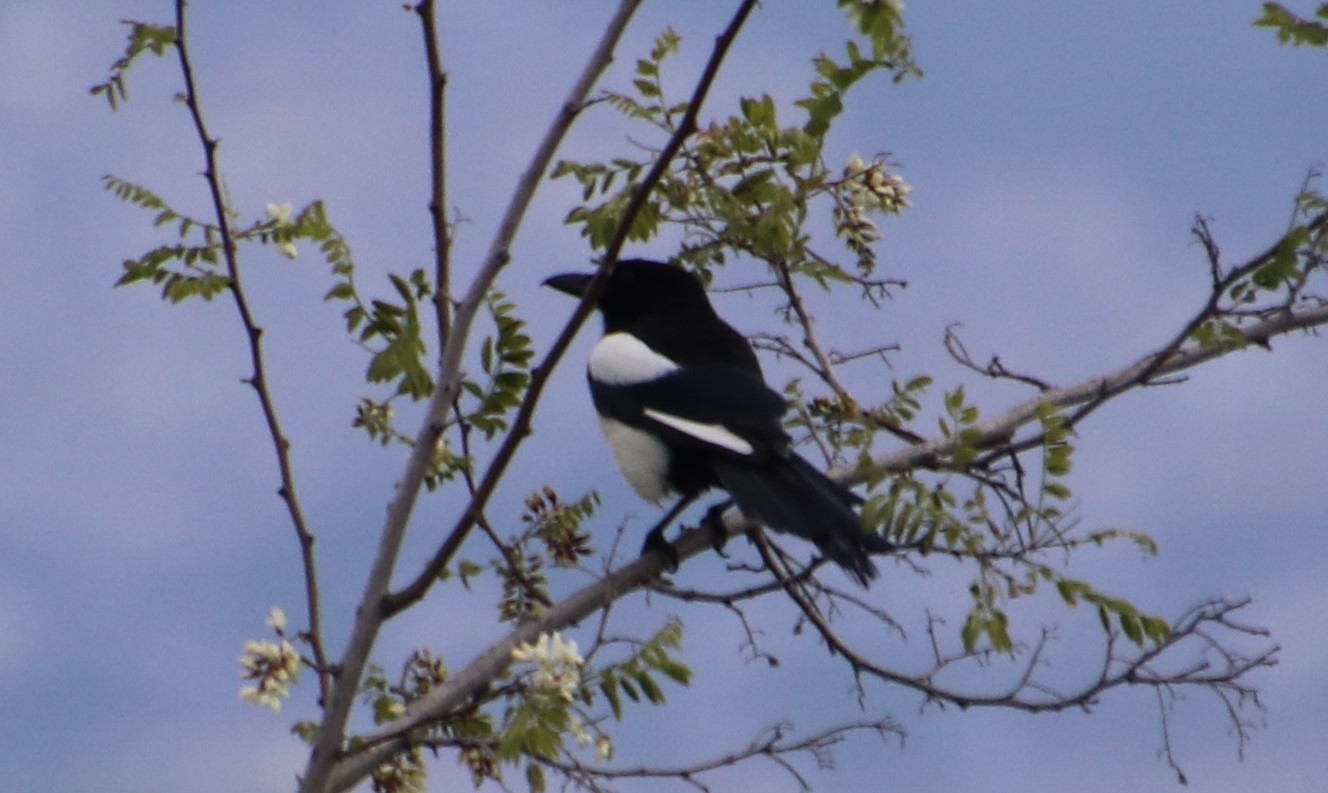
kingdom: Animalia
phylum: Chordata
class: Aves
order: Passeriformes
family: Corvidae
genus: Pica
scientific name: Pica pica
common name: Eurasian magpie
